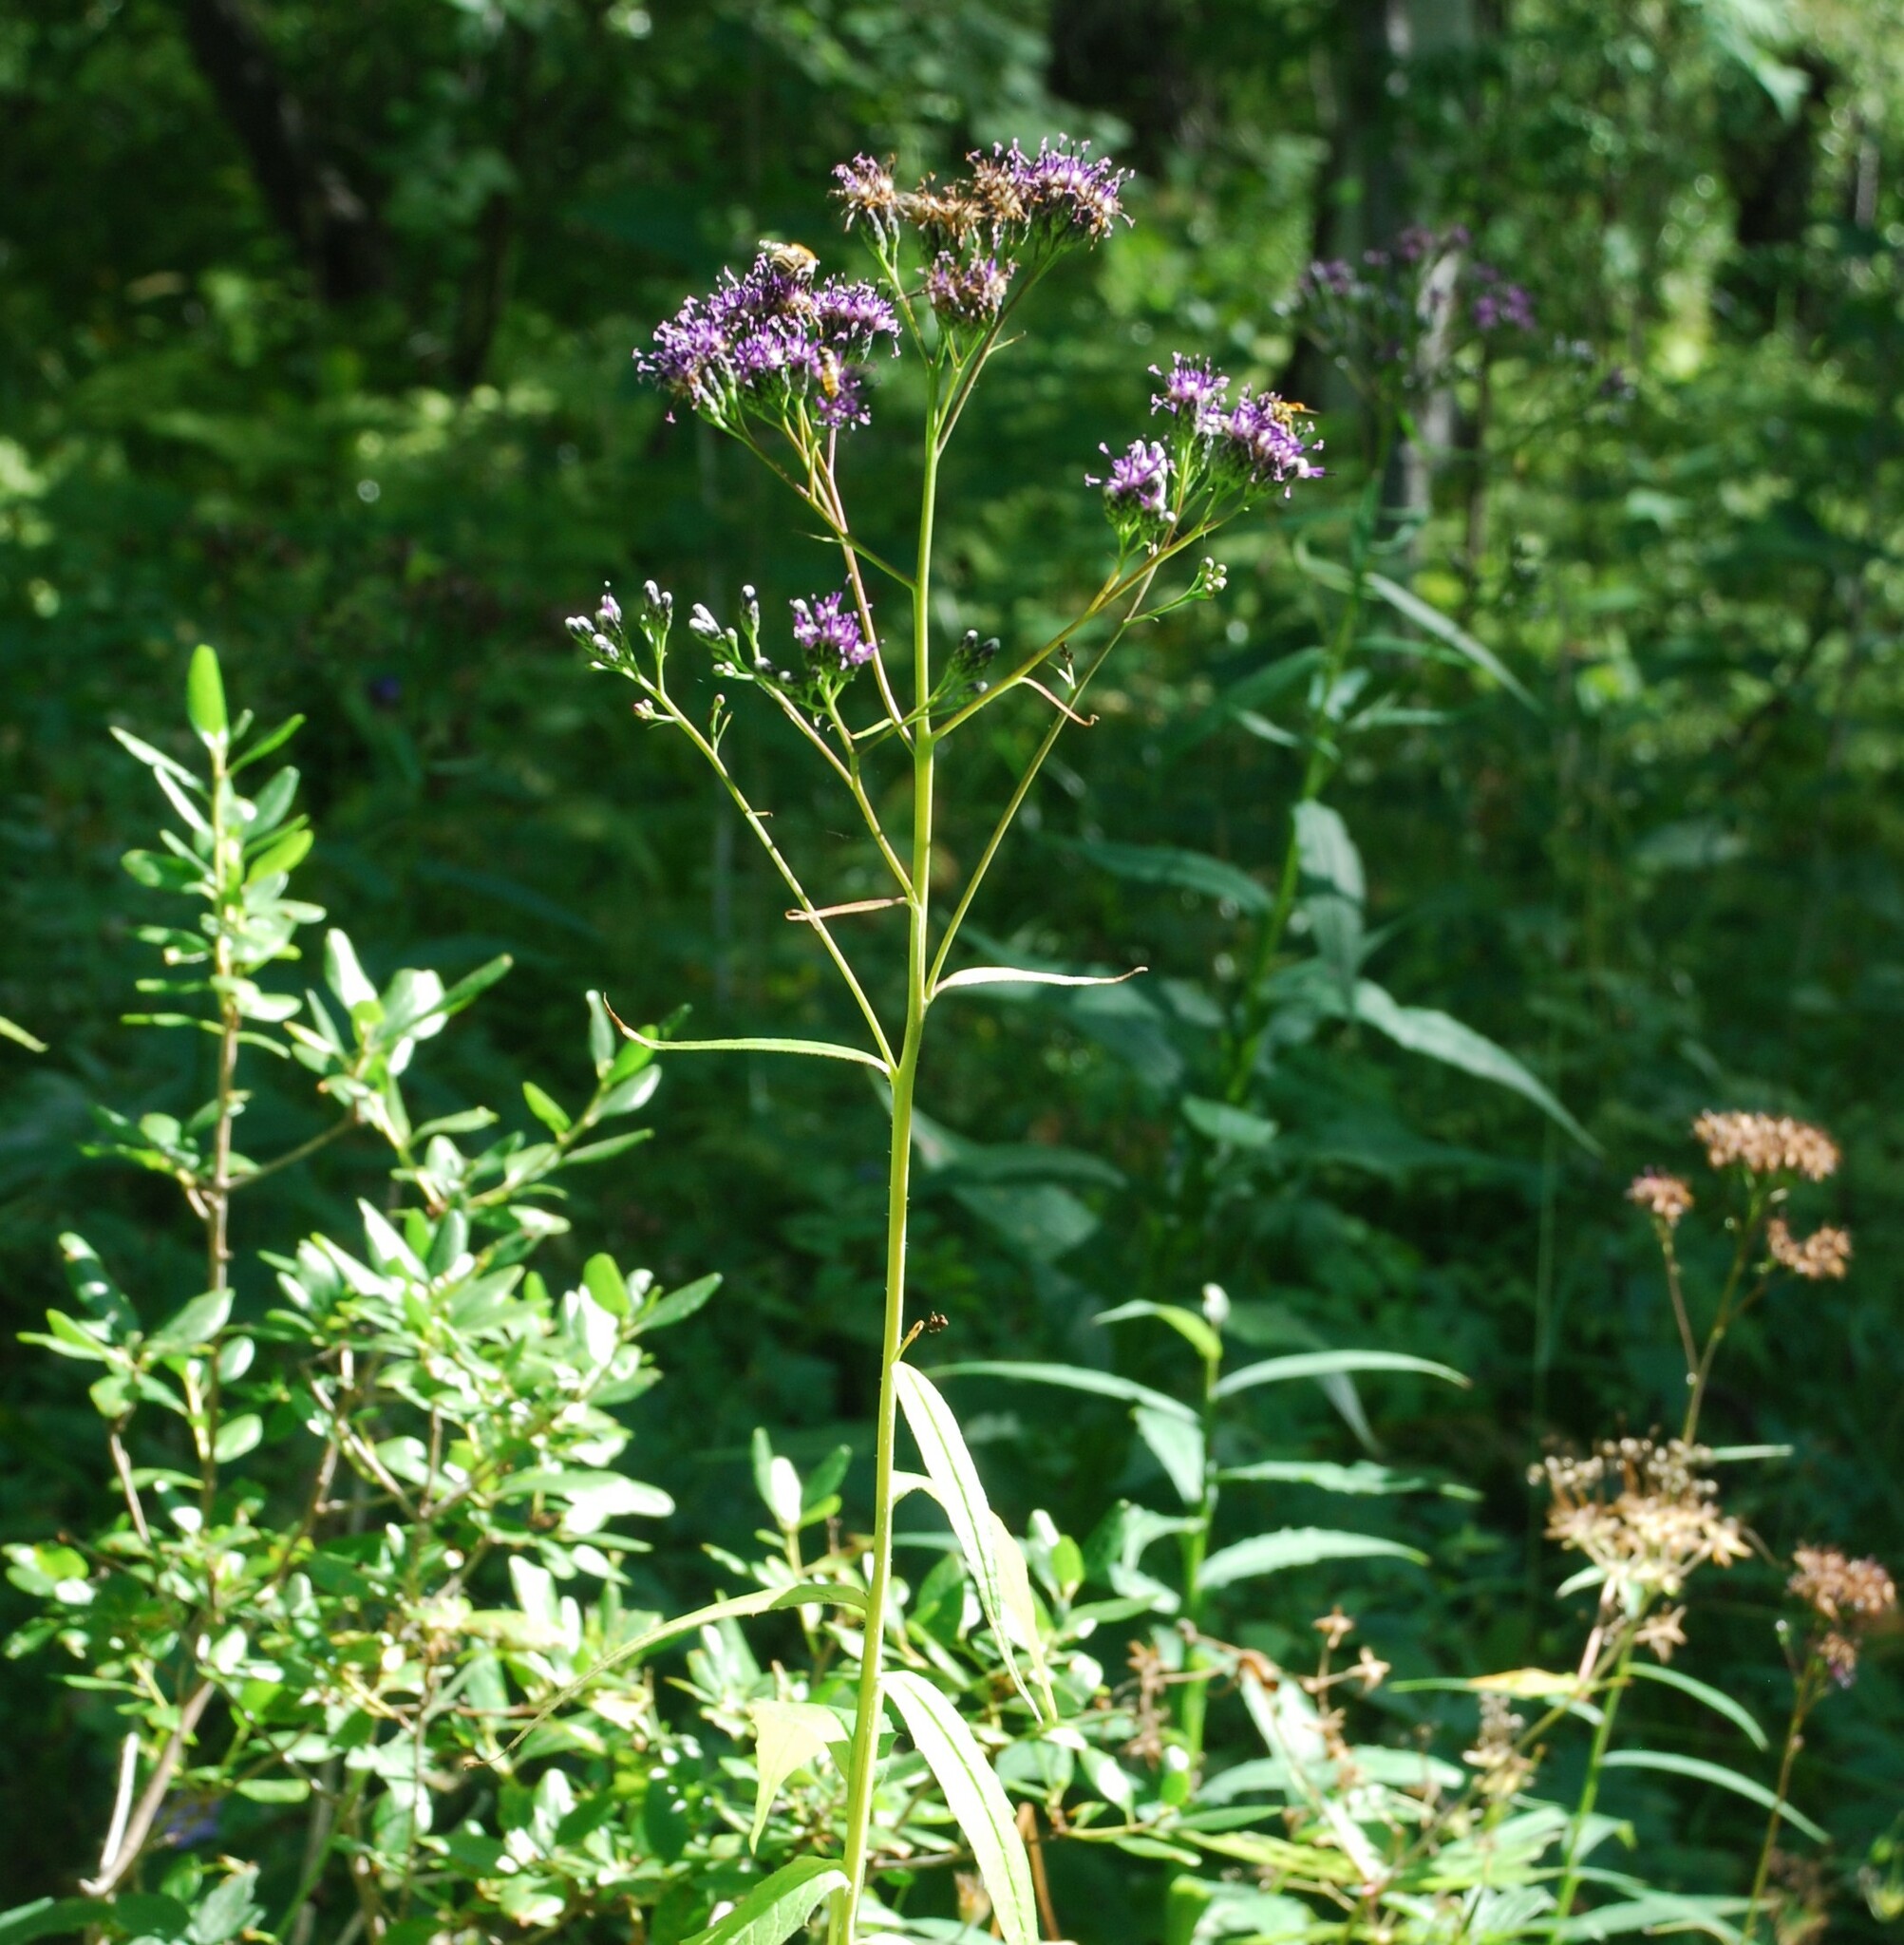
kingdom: Plantae
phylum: Tracheophyta
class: Magnoliopsida
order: Asterales
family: Asteraceae
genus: Saussurea
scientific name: Saussurea parviflora
